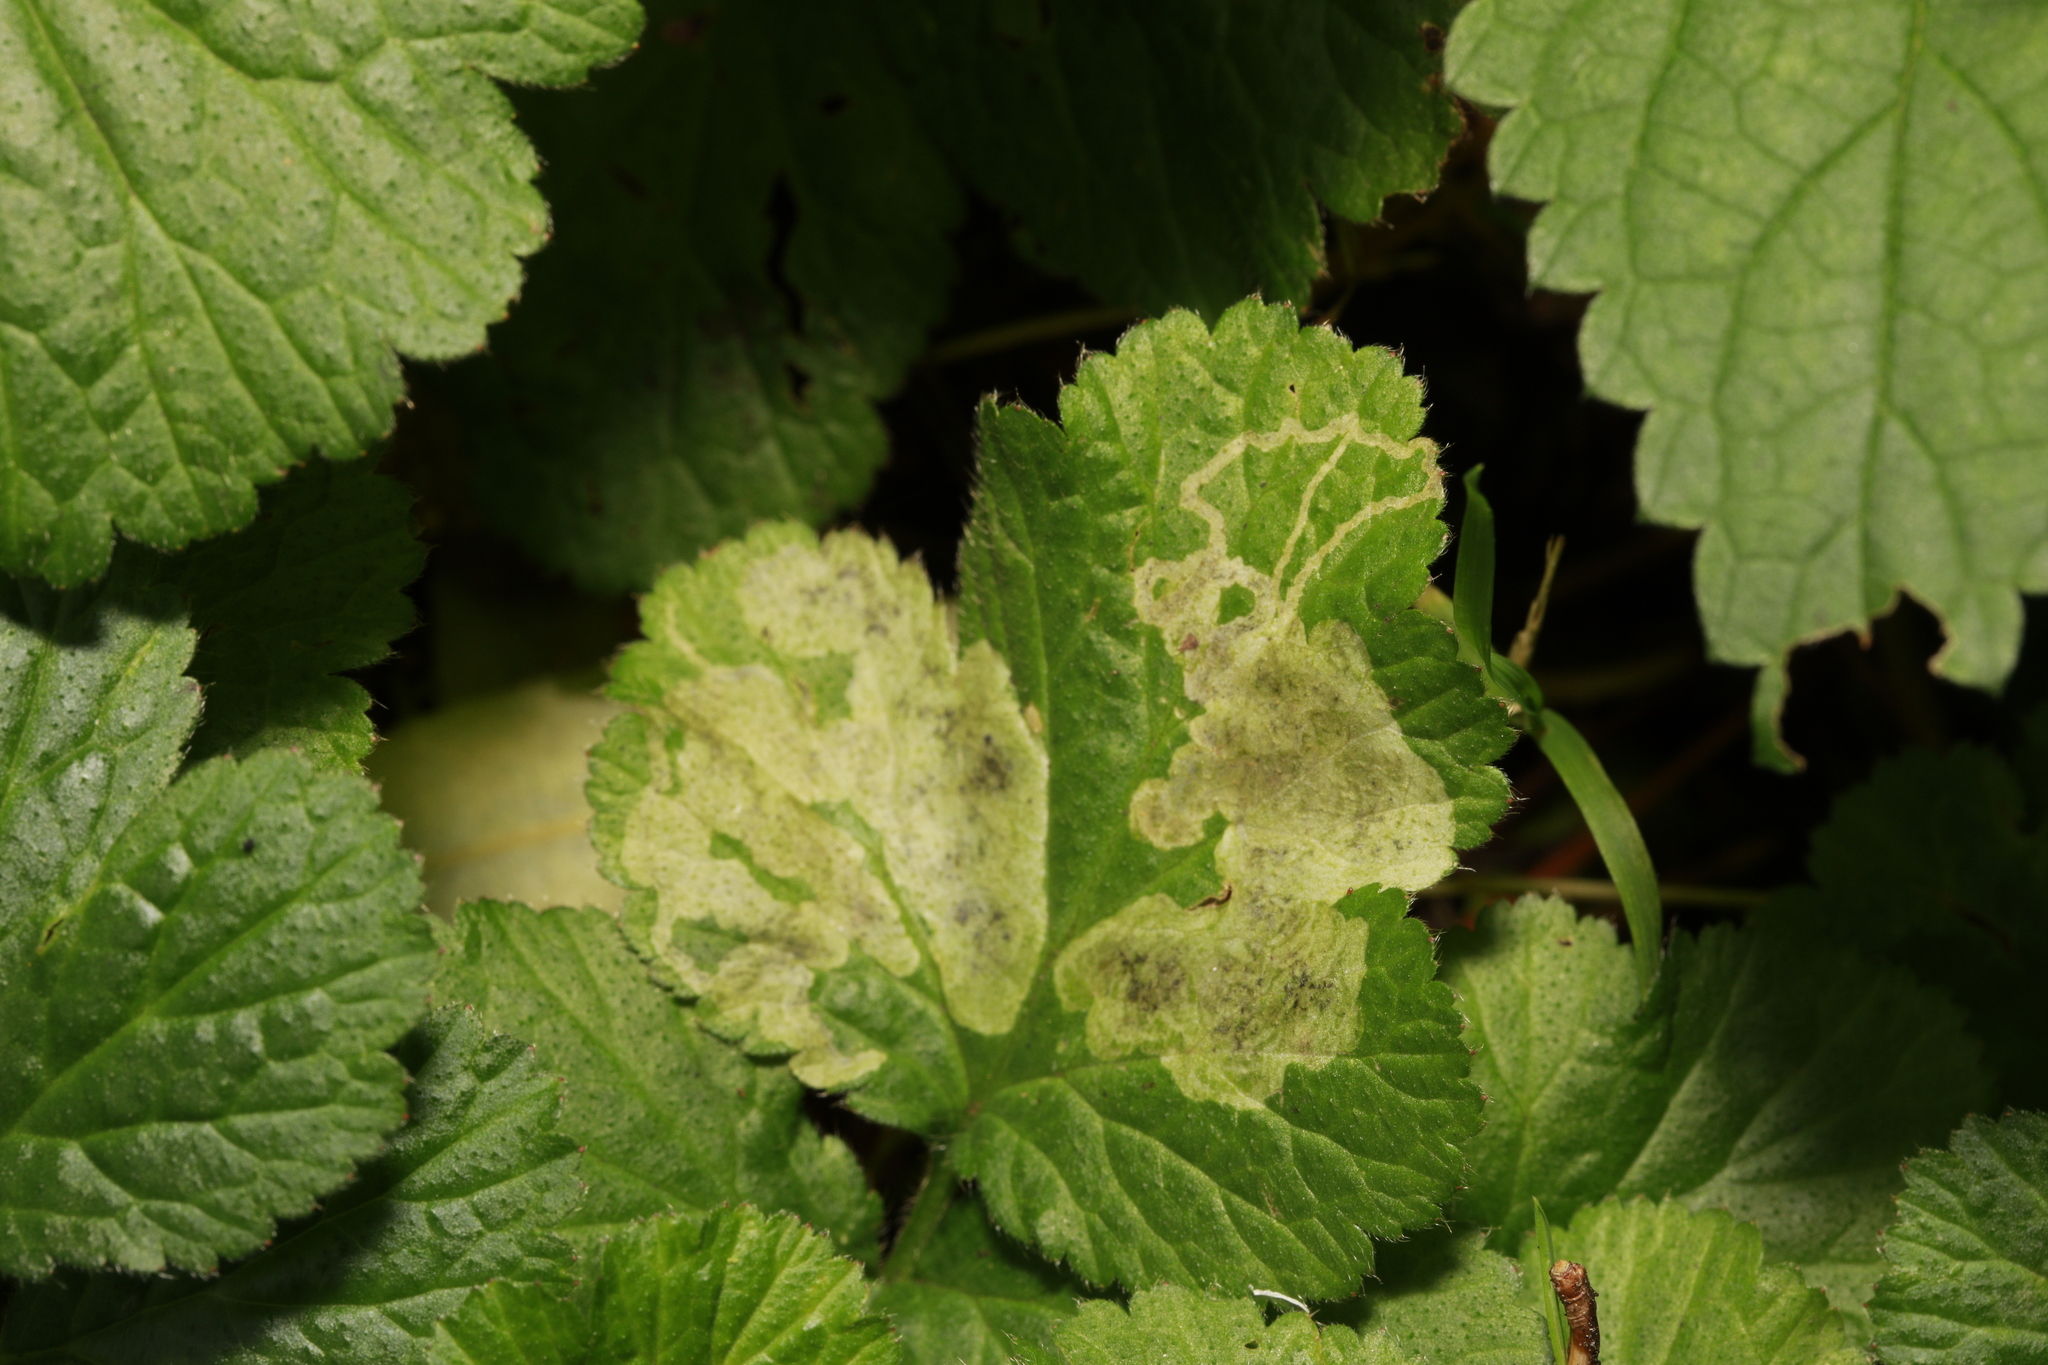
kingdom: Animalia
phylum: Arthropoda
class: Insecta
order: Diptera
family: Agromyzidae
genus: Agromyza
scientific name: Agromyza idaeiana
